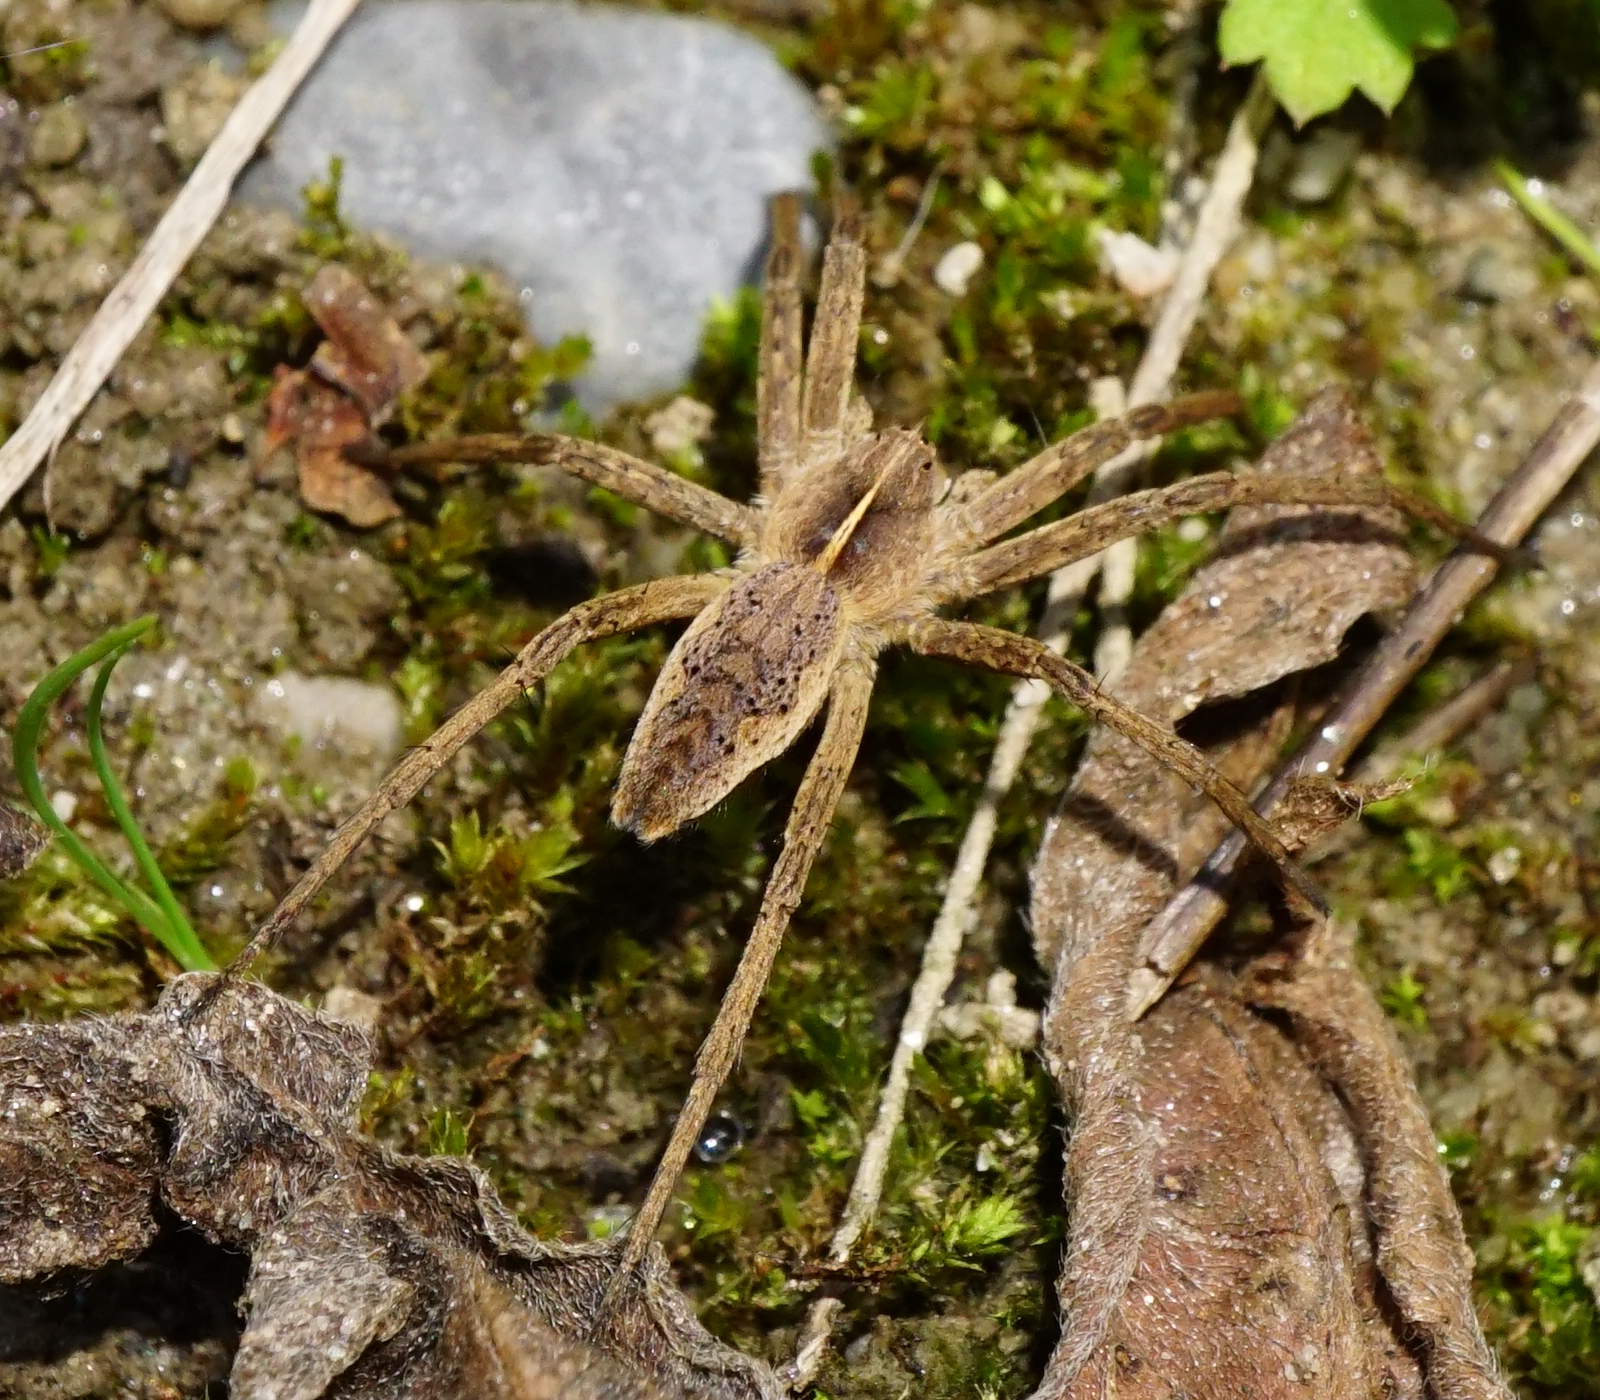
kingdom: Animalia
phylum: Arthropoda
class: Arachnida
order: Araneae
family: Pisauridae
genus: Pisaura
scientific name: Pisaura mirabilis
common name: Tent spider
